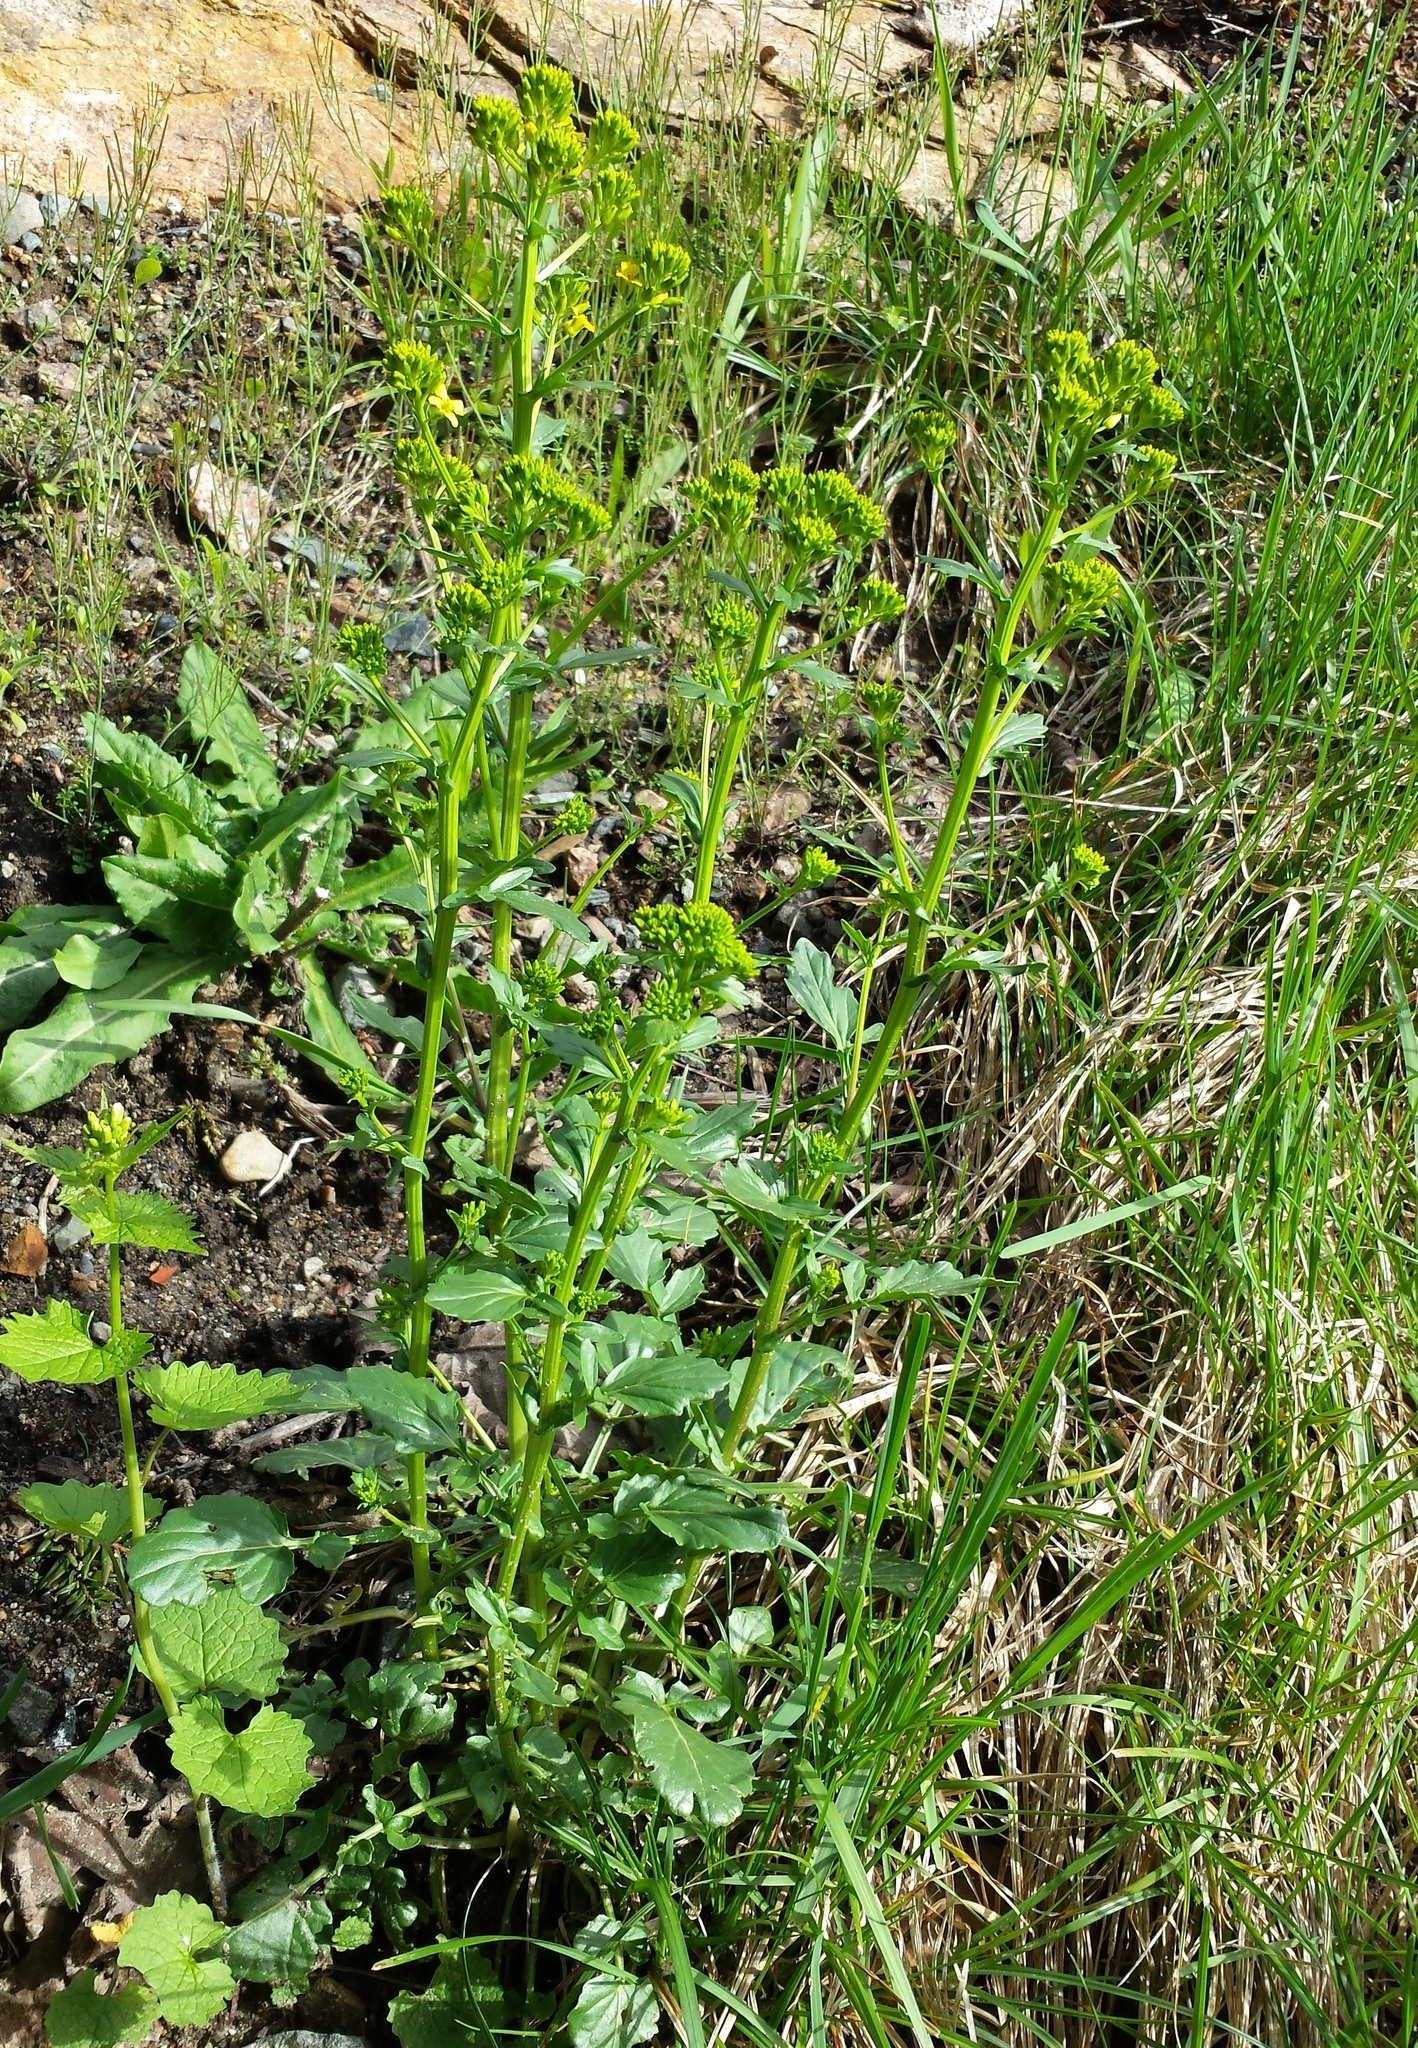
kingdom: Plantae
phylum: Tracheophyta
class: Magnoliopsida
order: Brassicales
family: Brassicaceae
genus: Barbarea
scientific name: Barbarea vulgaris
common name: Cressy-greens
